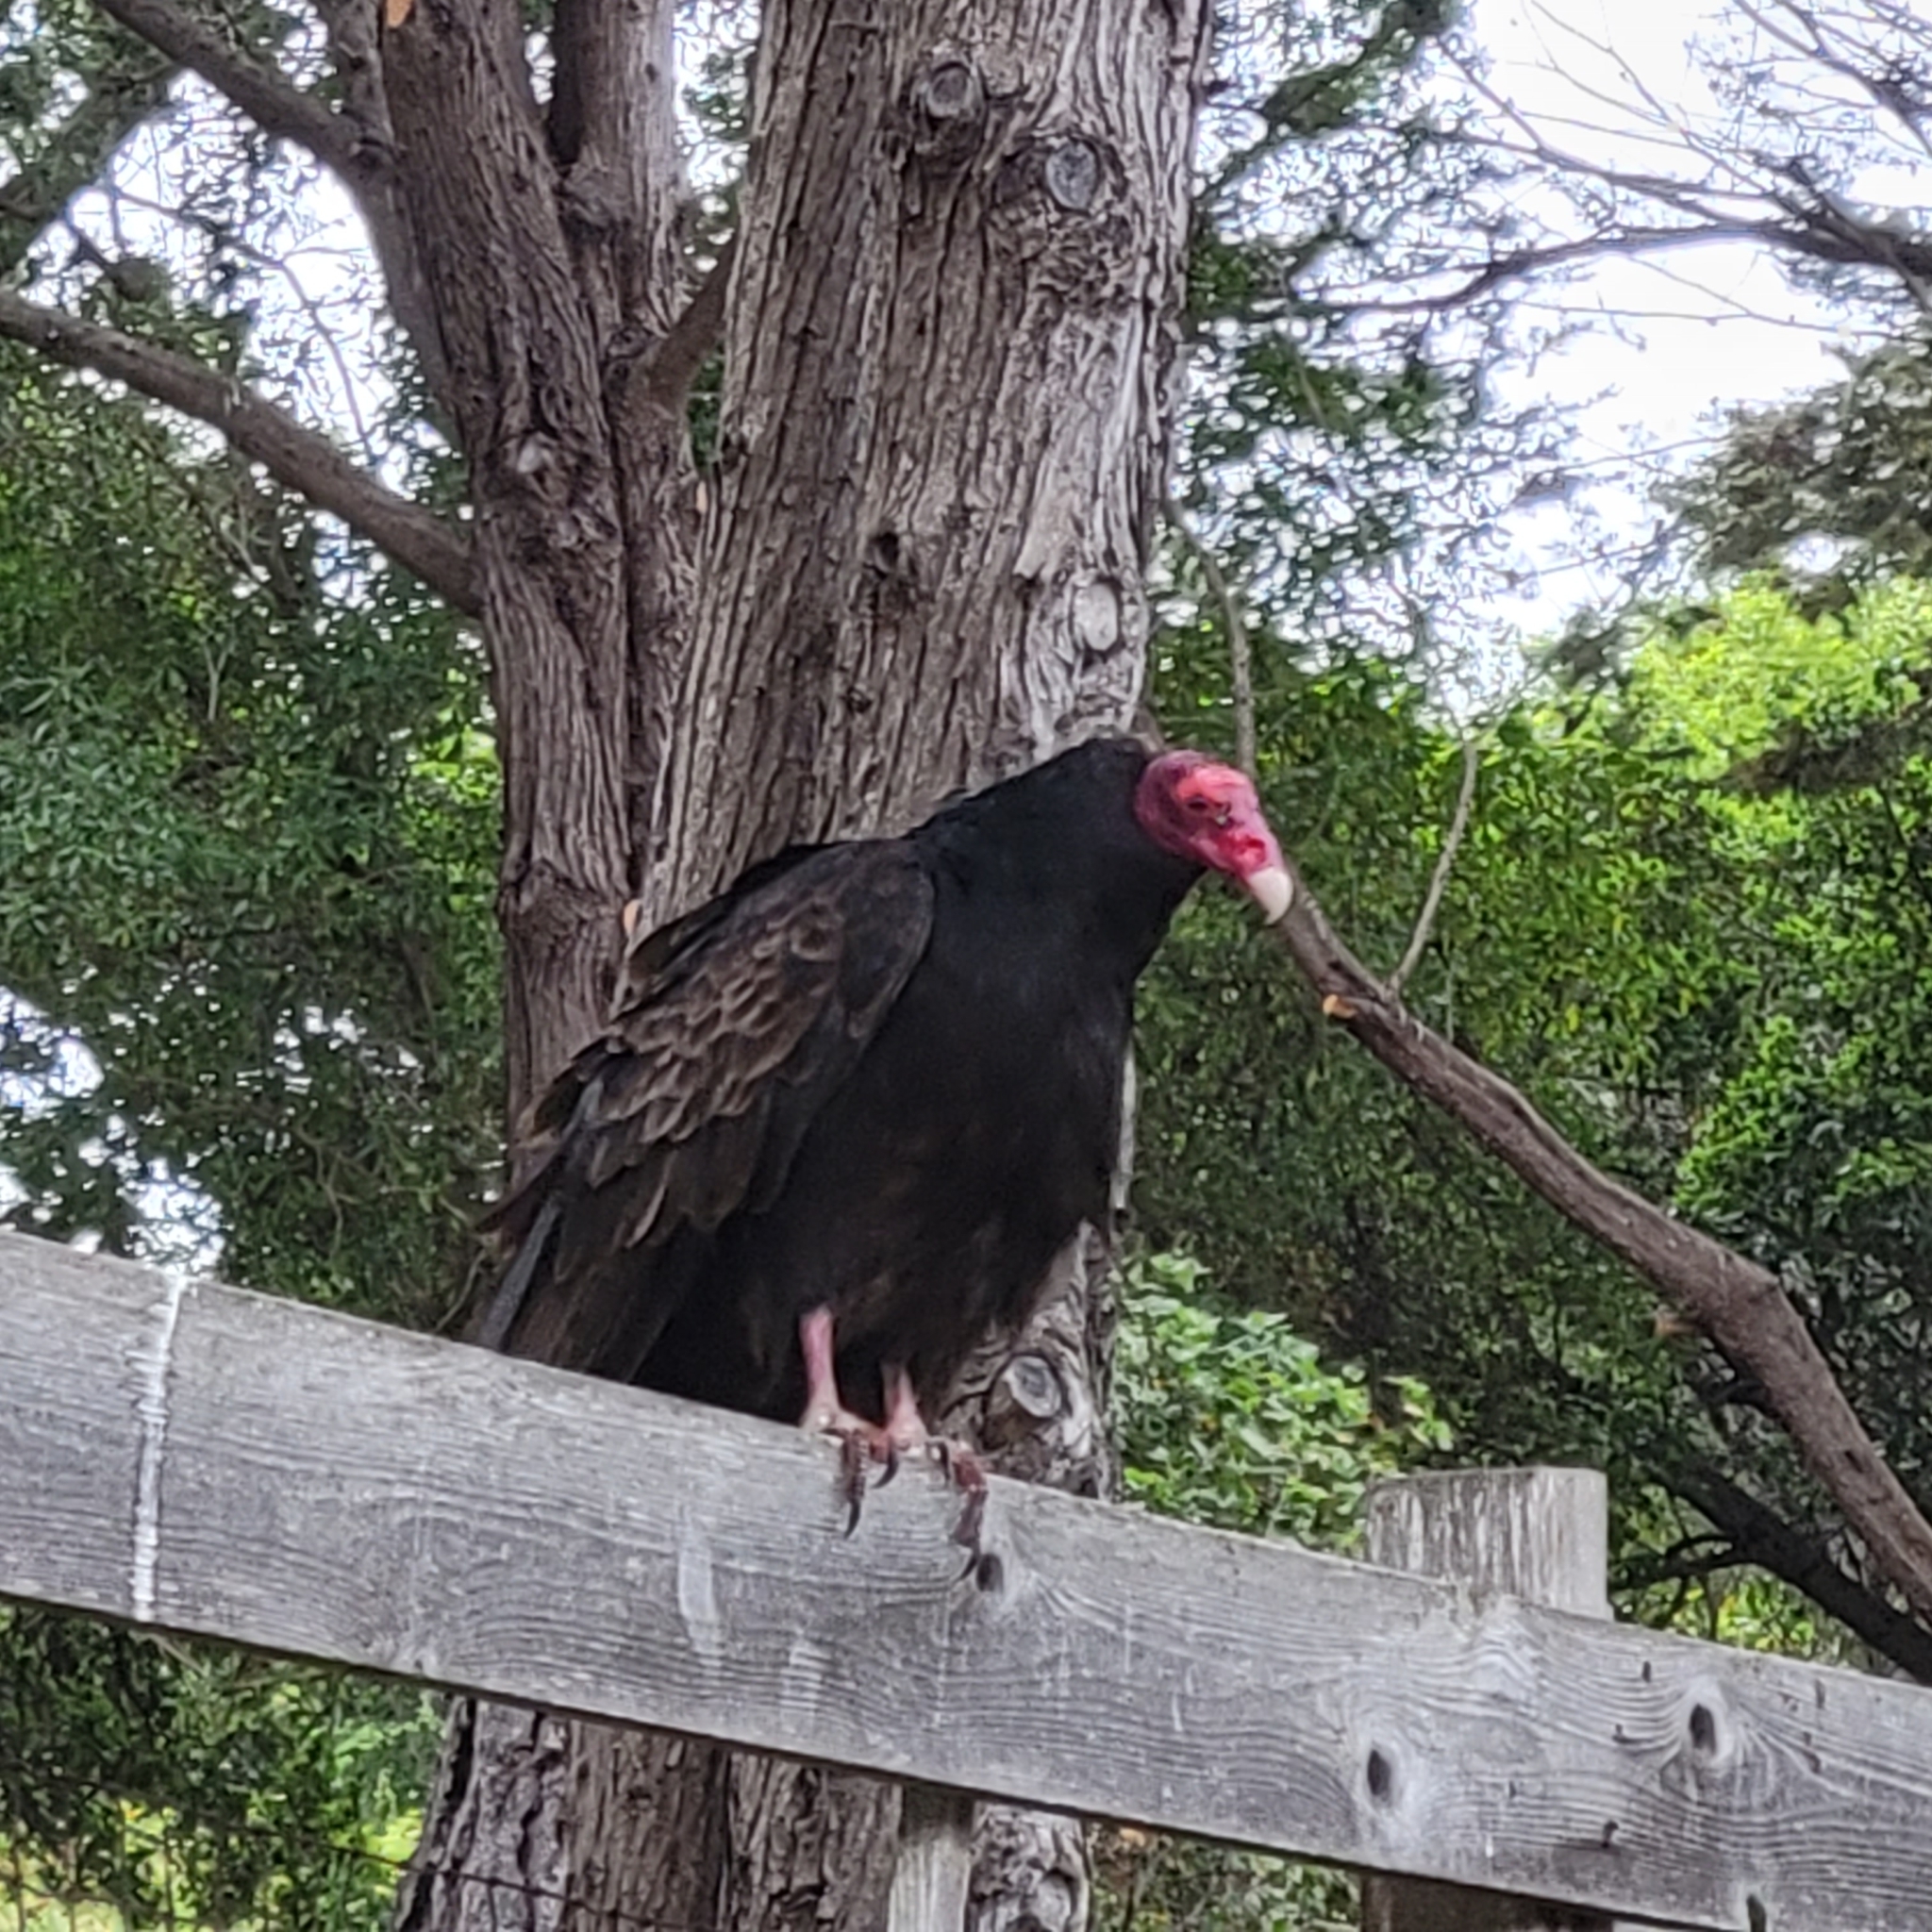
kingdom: Animalia
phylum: Chordata
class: Aves
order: Accipitriformes
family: Cathartidae
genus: Cathartes
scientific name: Cathartes aura
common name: Turkey vulture
